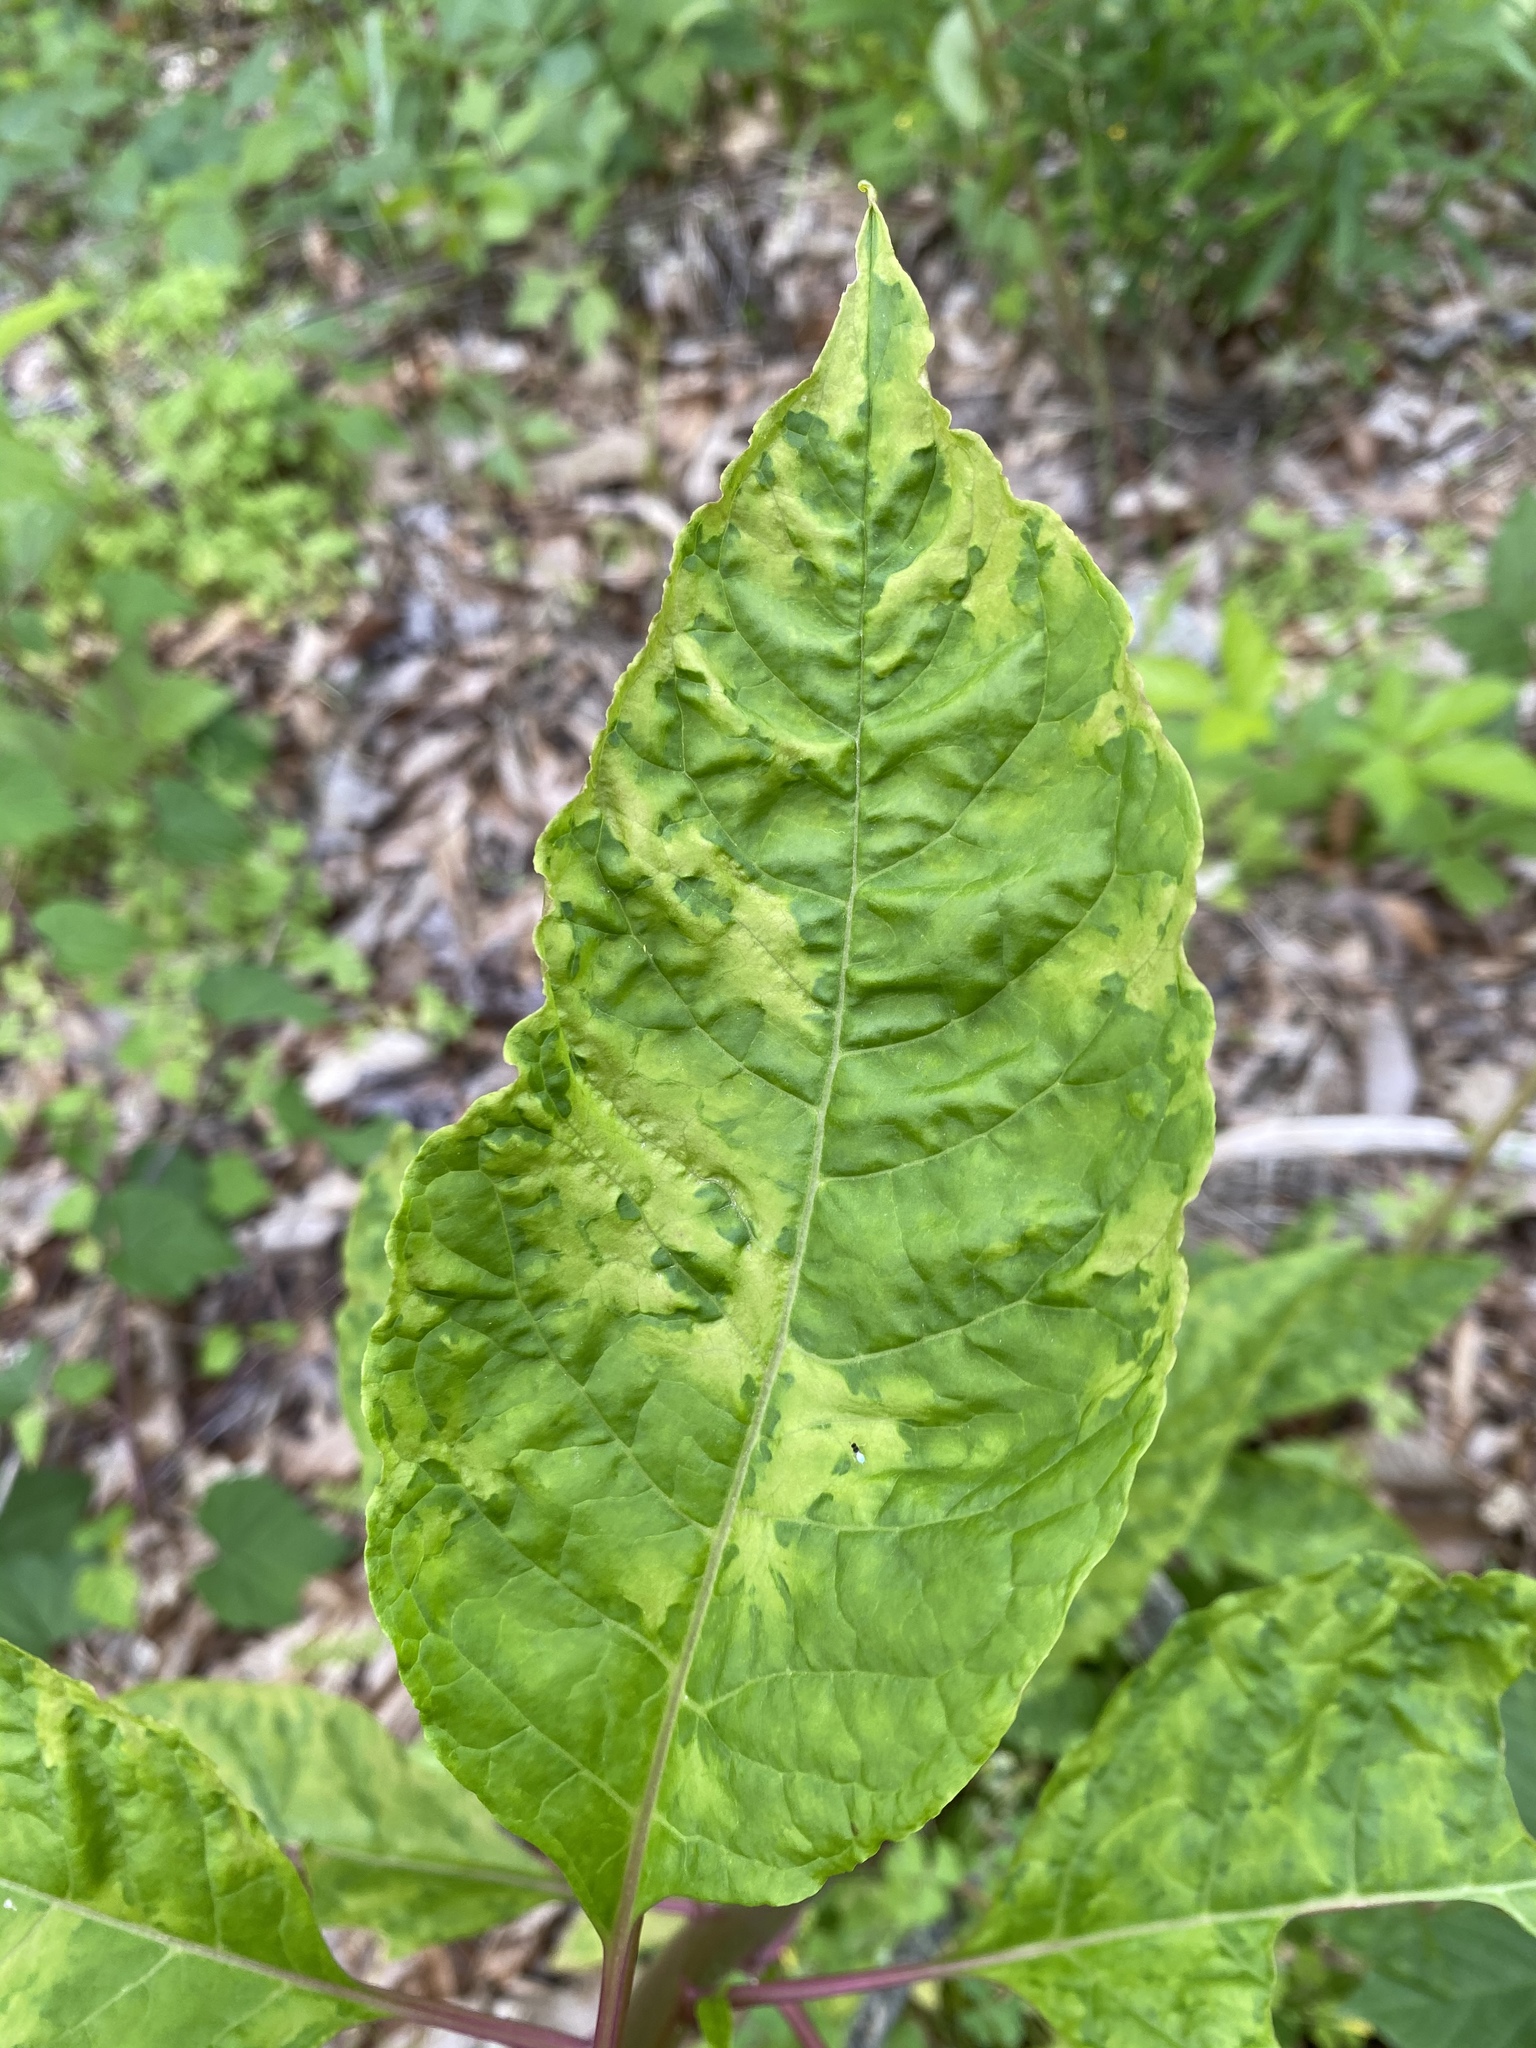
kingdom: Viruses
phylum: Pisuviricota
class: Stelpaviricetes
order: Patatavirales
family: Potyviridae
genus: Potyvirus
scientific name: Potyvirus Pokeweed mosaic virus
